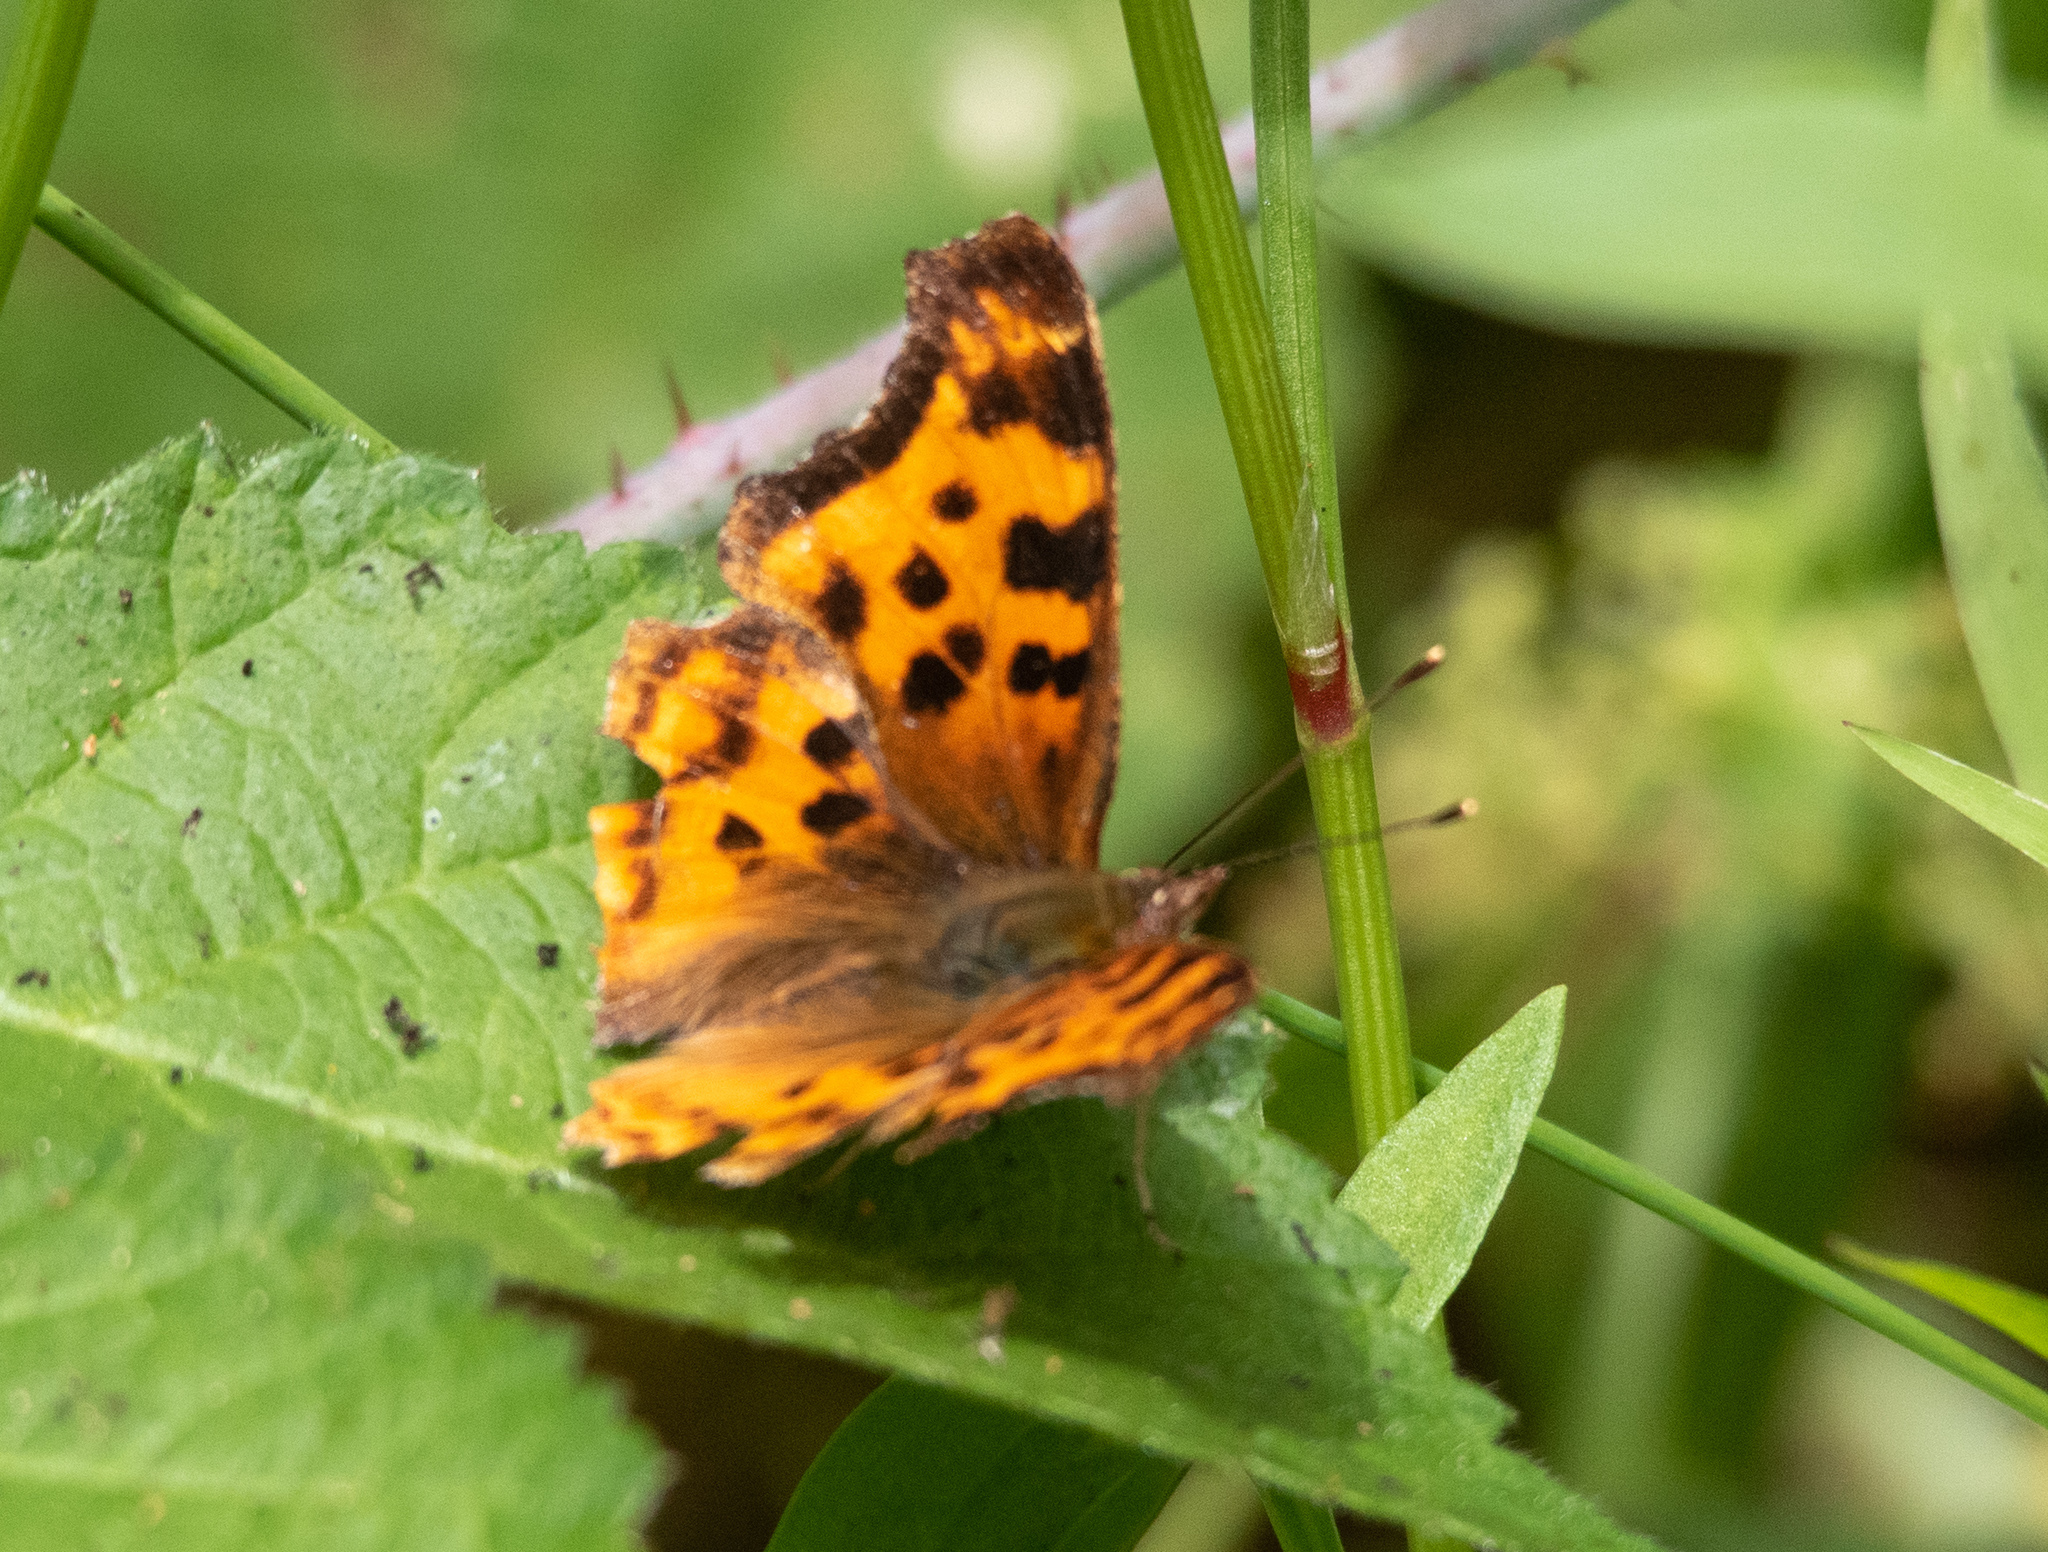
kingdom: Animalia
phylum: Arthropoda
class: Insecta
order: Lepidoptera
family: Nymphalidae
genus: Polygonia
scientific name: Polygonia satyrus
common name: Satyr angle wing
